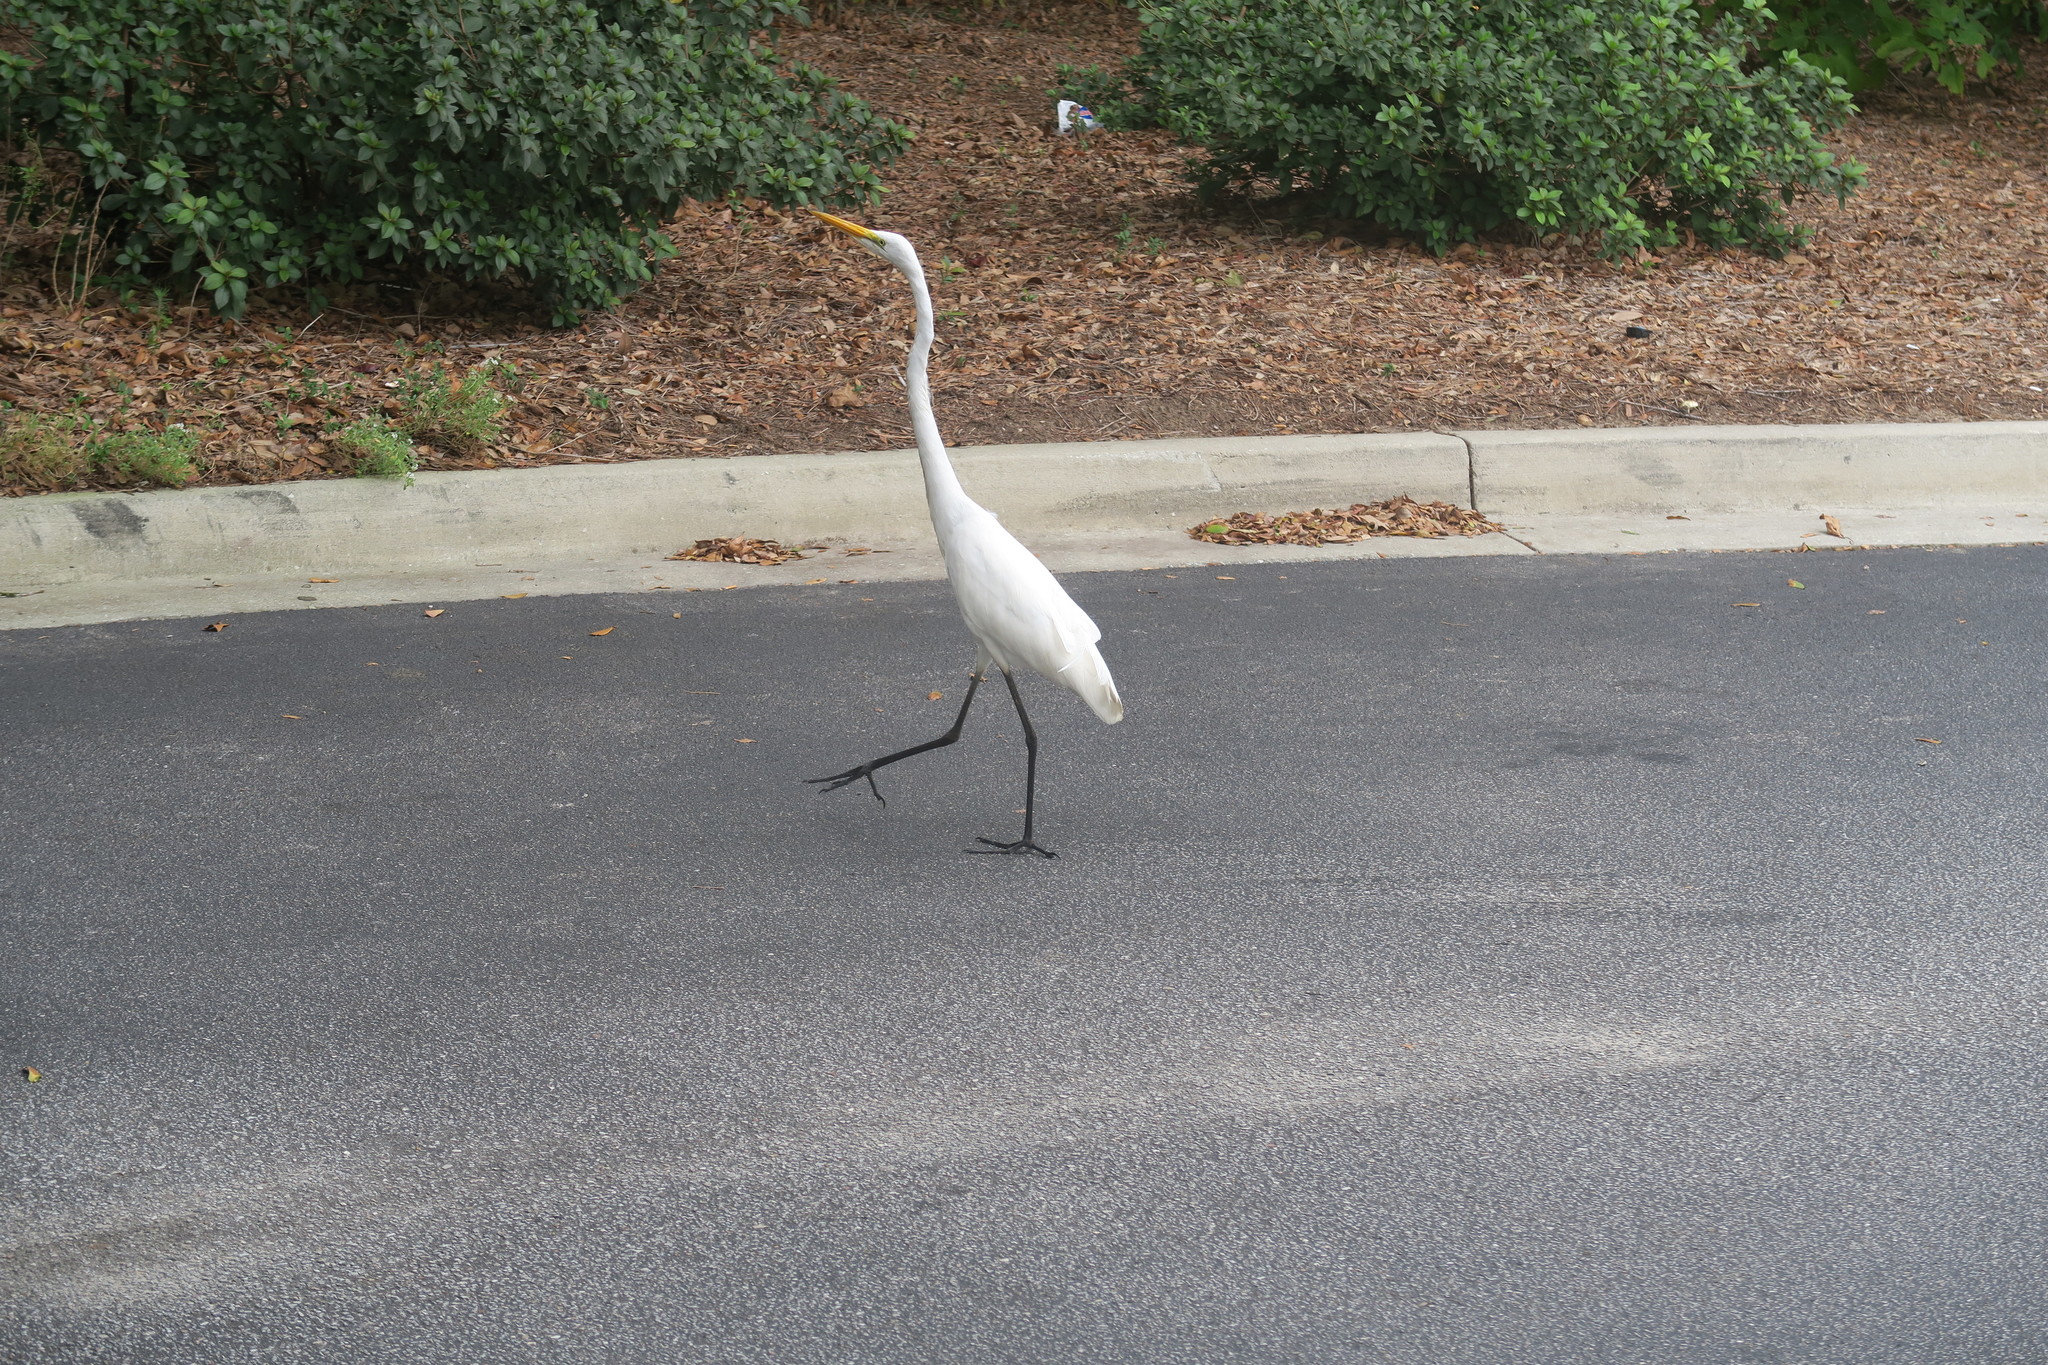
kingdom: Animalia
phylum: Chordata
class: Aves
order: Pelecaniformes
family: Ardeidae
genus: Ardea
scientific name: Ardea alba
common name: Great egret
